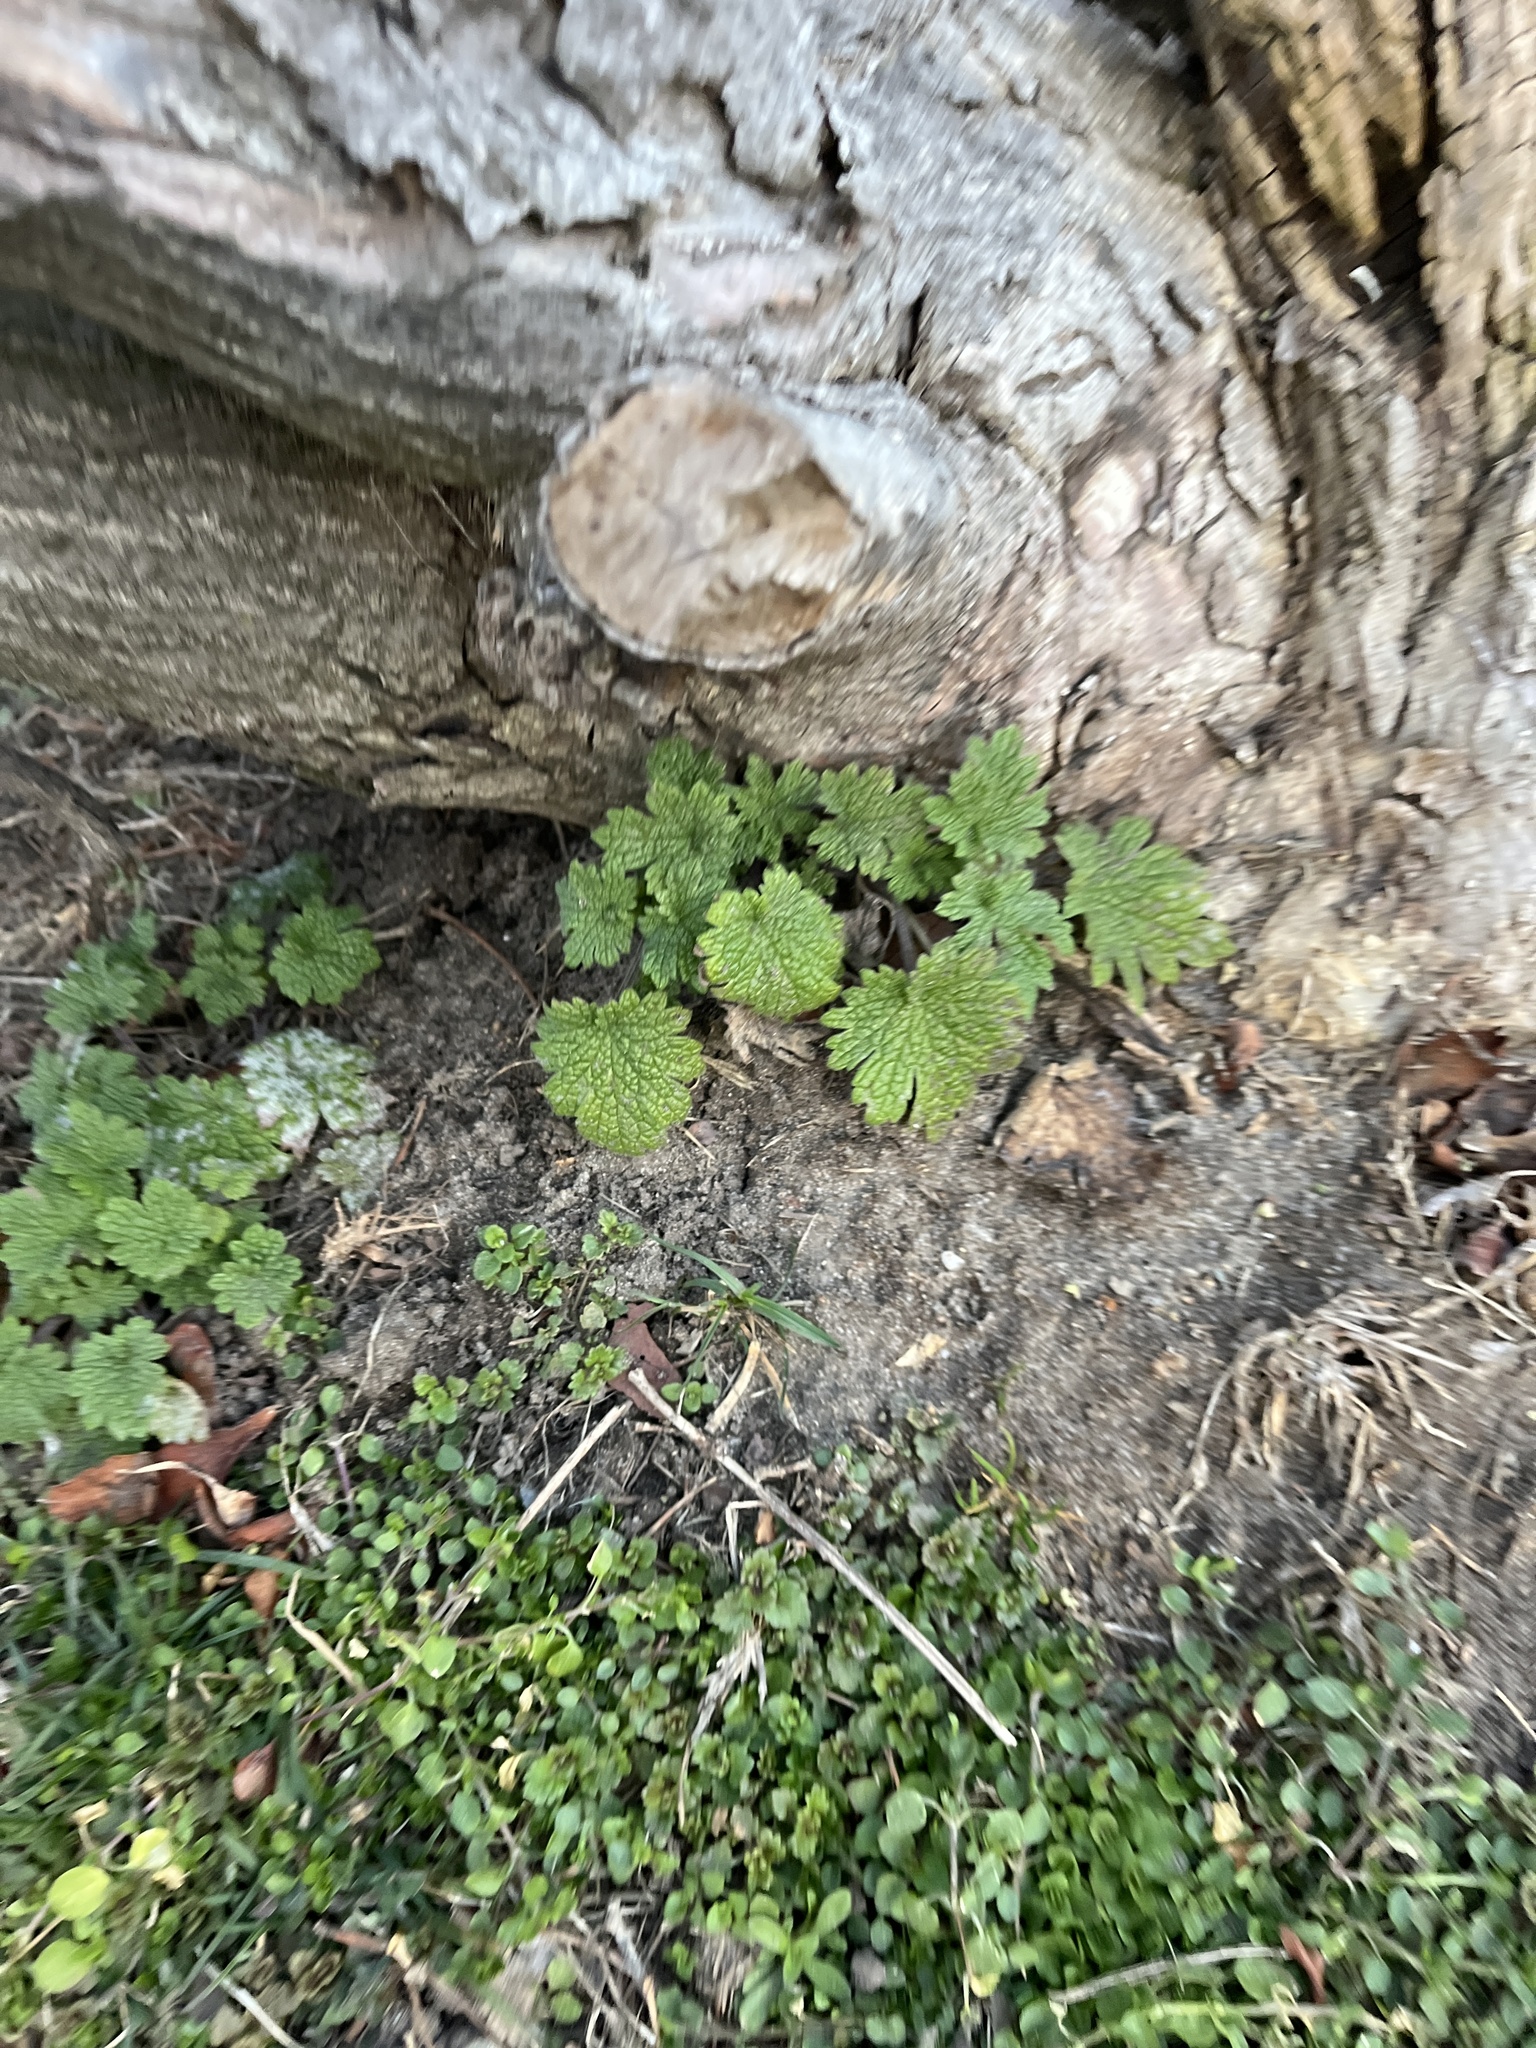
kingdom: Plantae
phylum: Tracheophyta
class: Magnoliopsida
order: Lamiales
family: Lamiaceae
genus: Leonurus
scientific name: Leonurus cardiaca
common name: Motherwort
